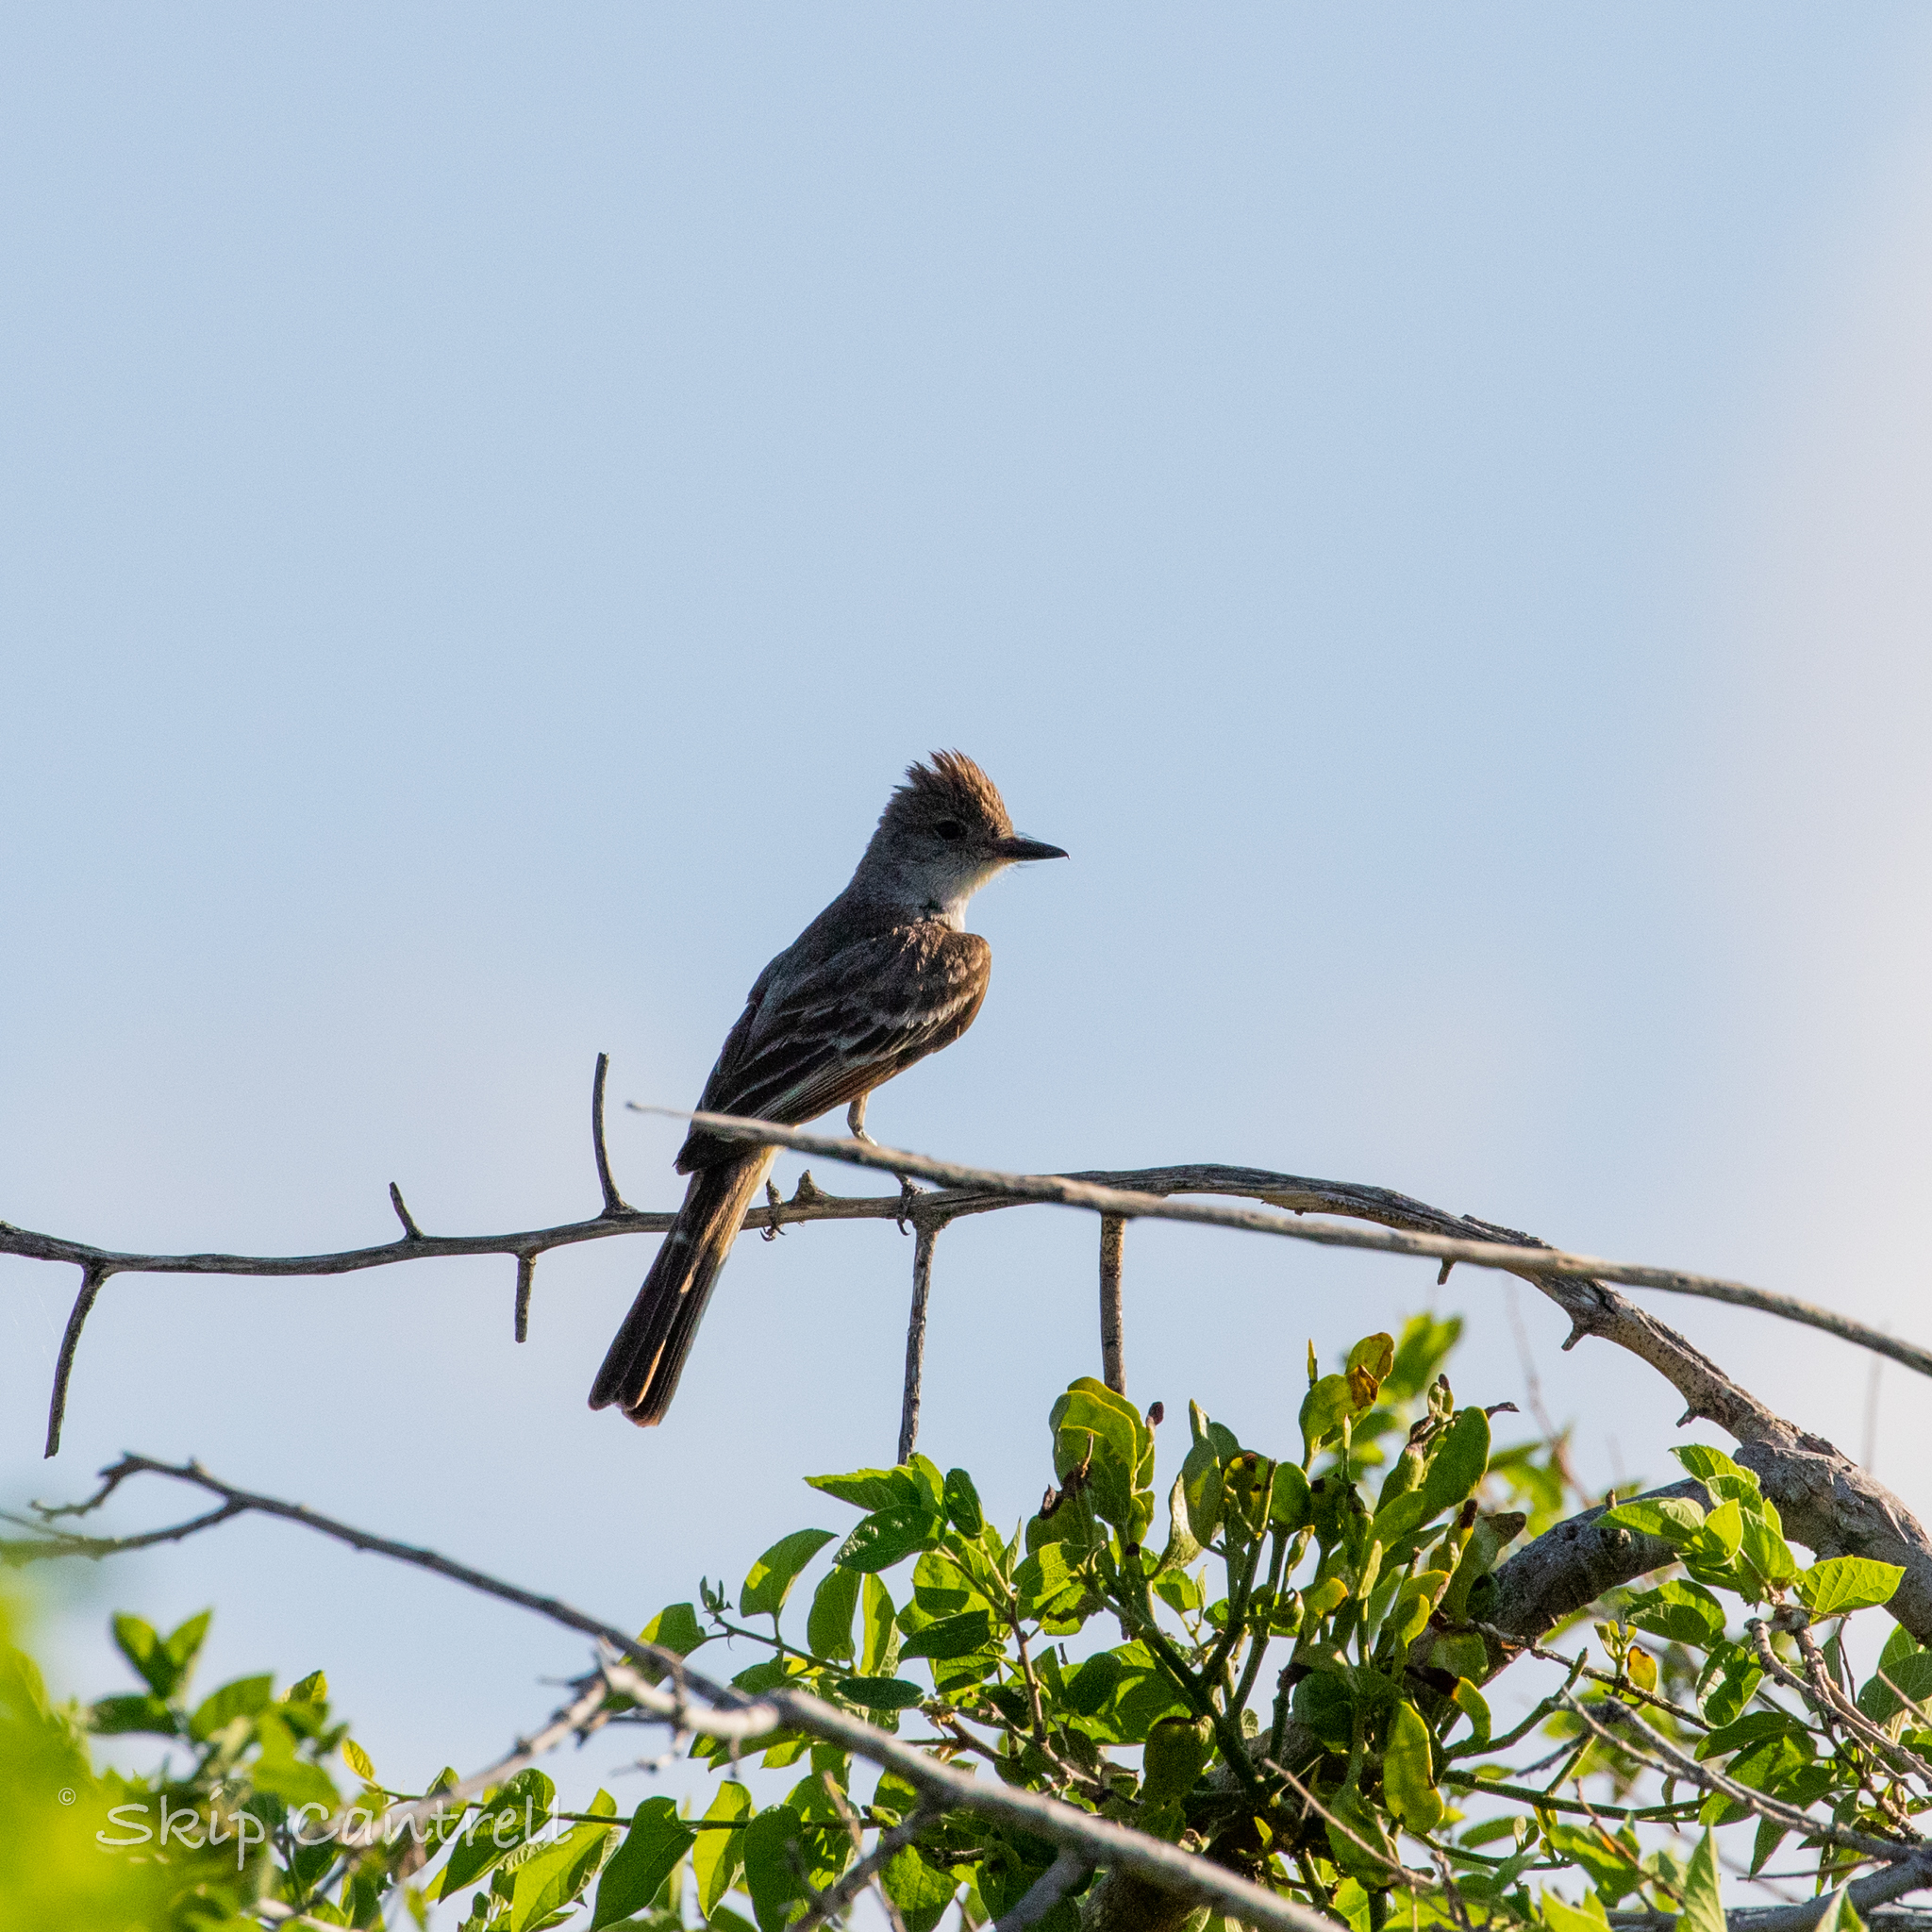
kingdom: Animalia
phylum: Chordata
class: Aves
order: Passeriformes
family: Tyrannidae
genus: Myiarchus
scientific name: Myiarchus cinerascens
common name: Ash-throated flycatcher
